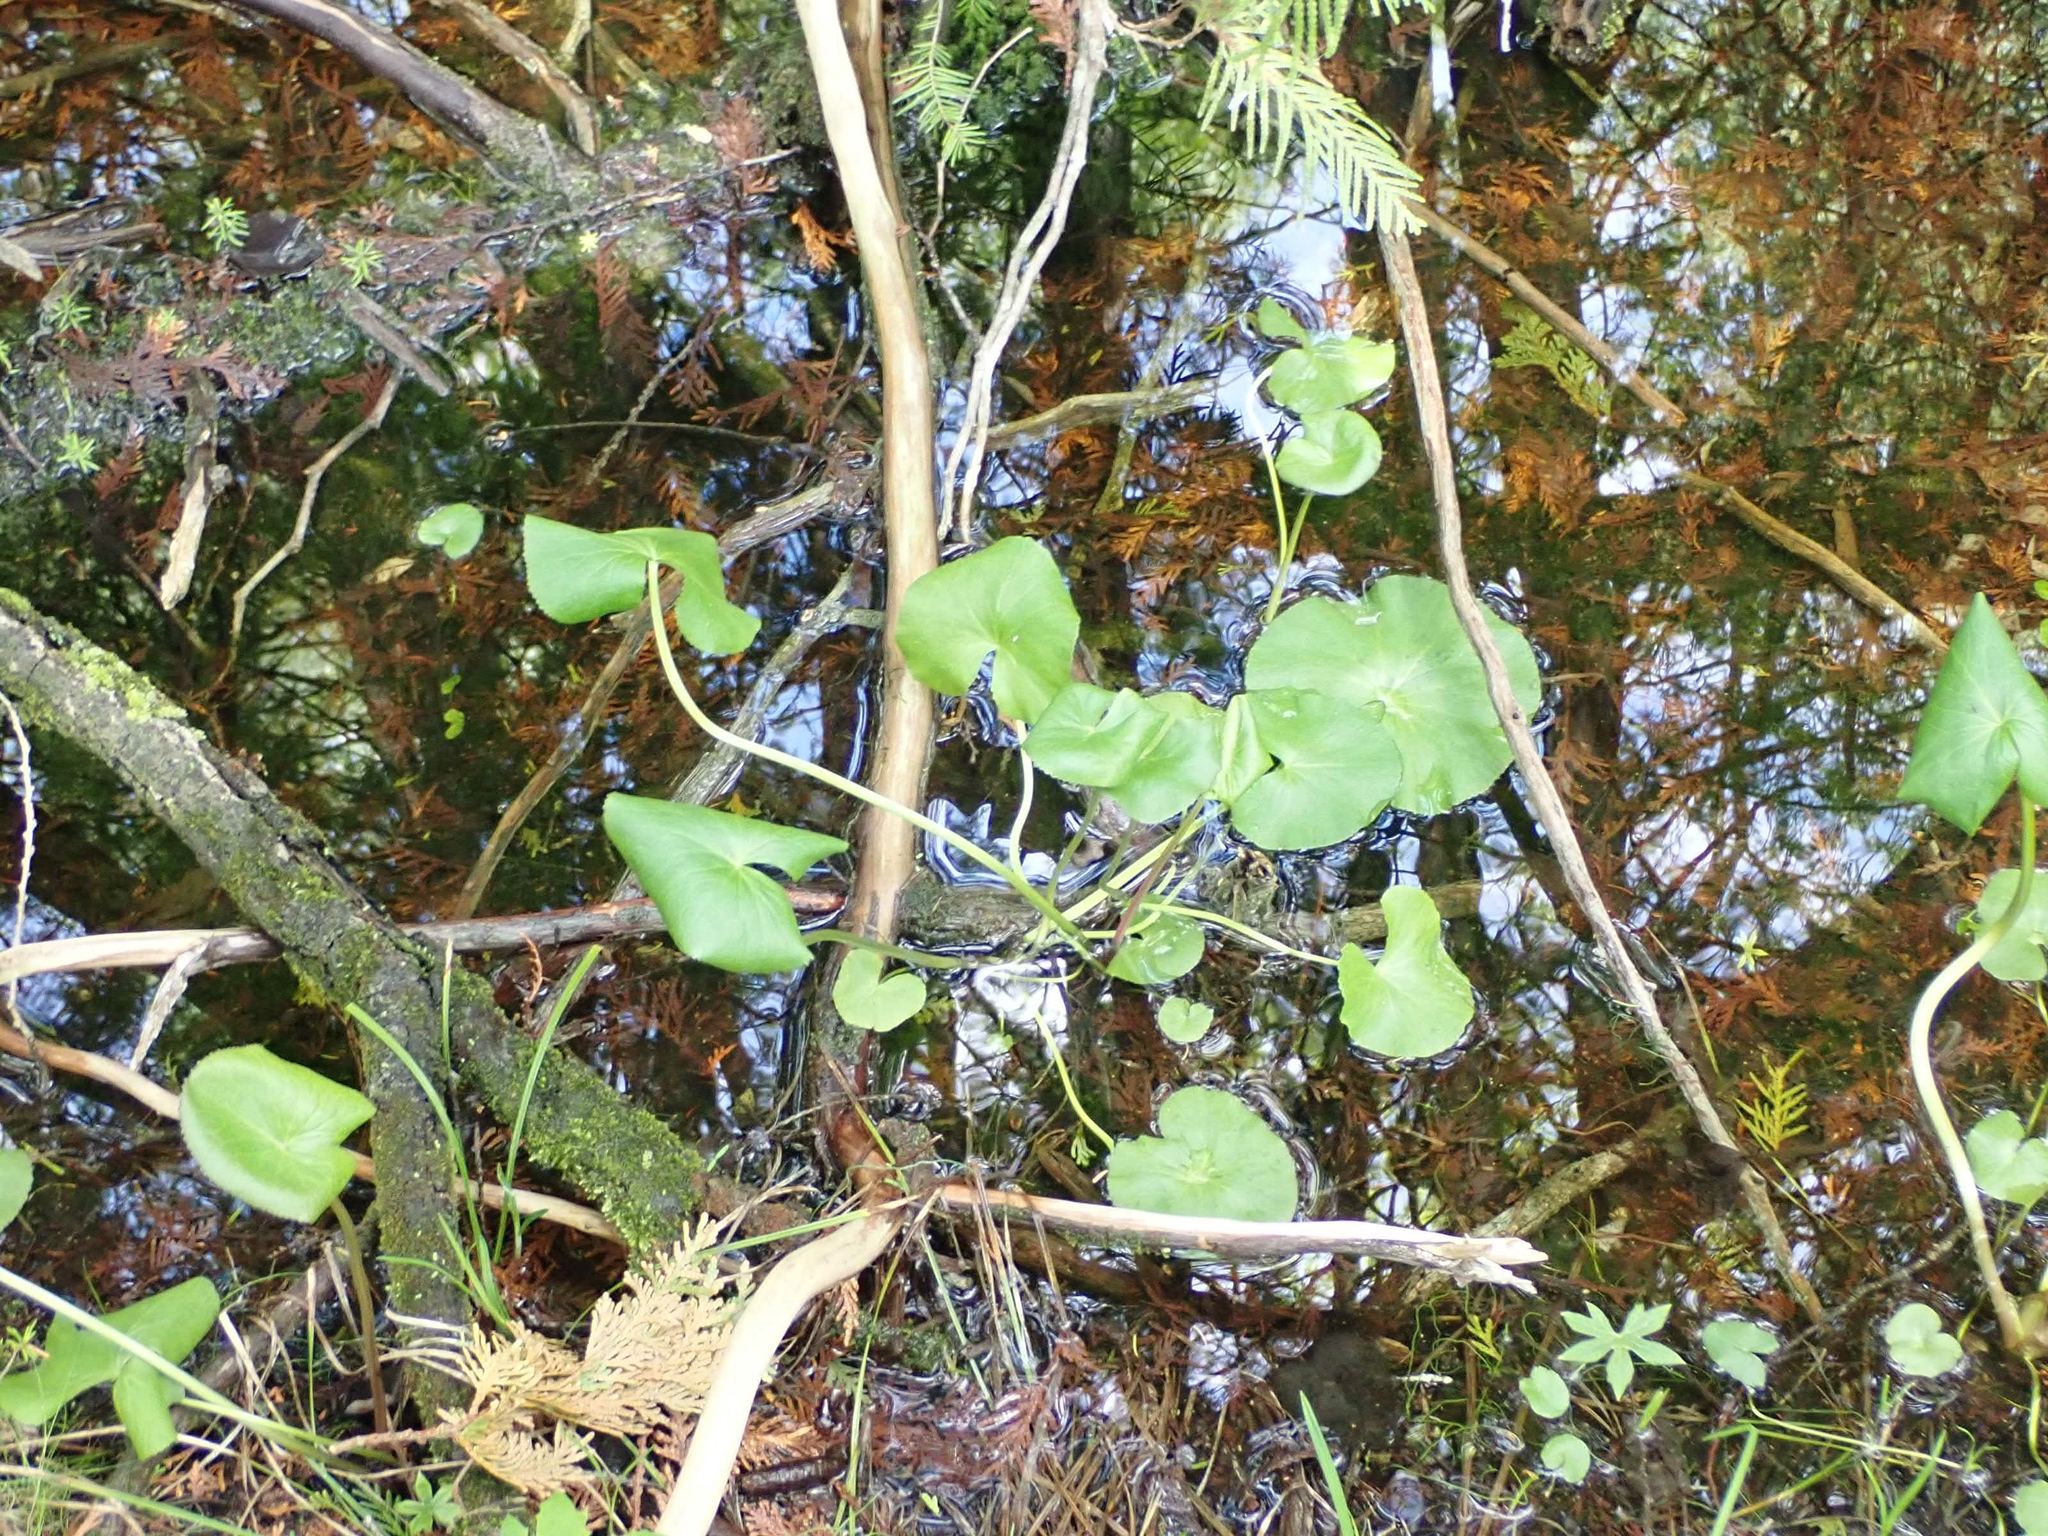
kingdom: Plantae
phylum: Tracheophyta
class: Magnoliopsida
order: Ranunculales
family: Ranunculaceae
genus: Caltha
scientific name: Caltha palustris
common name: Marsh marigold
